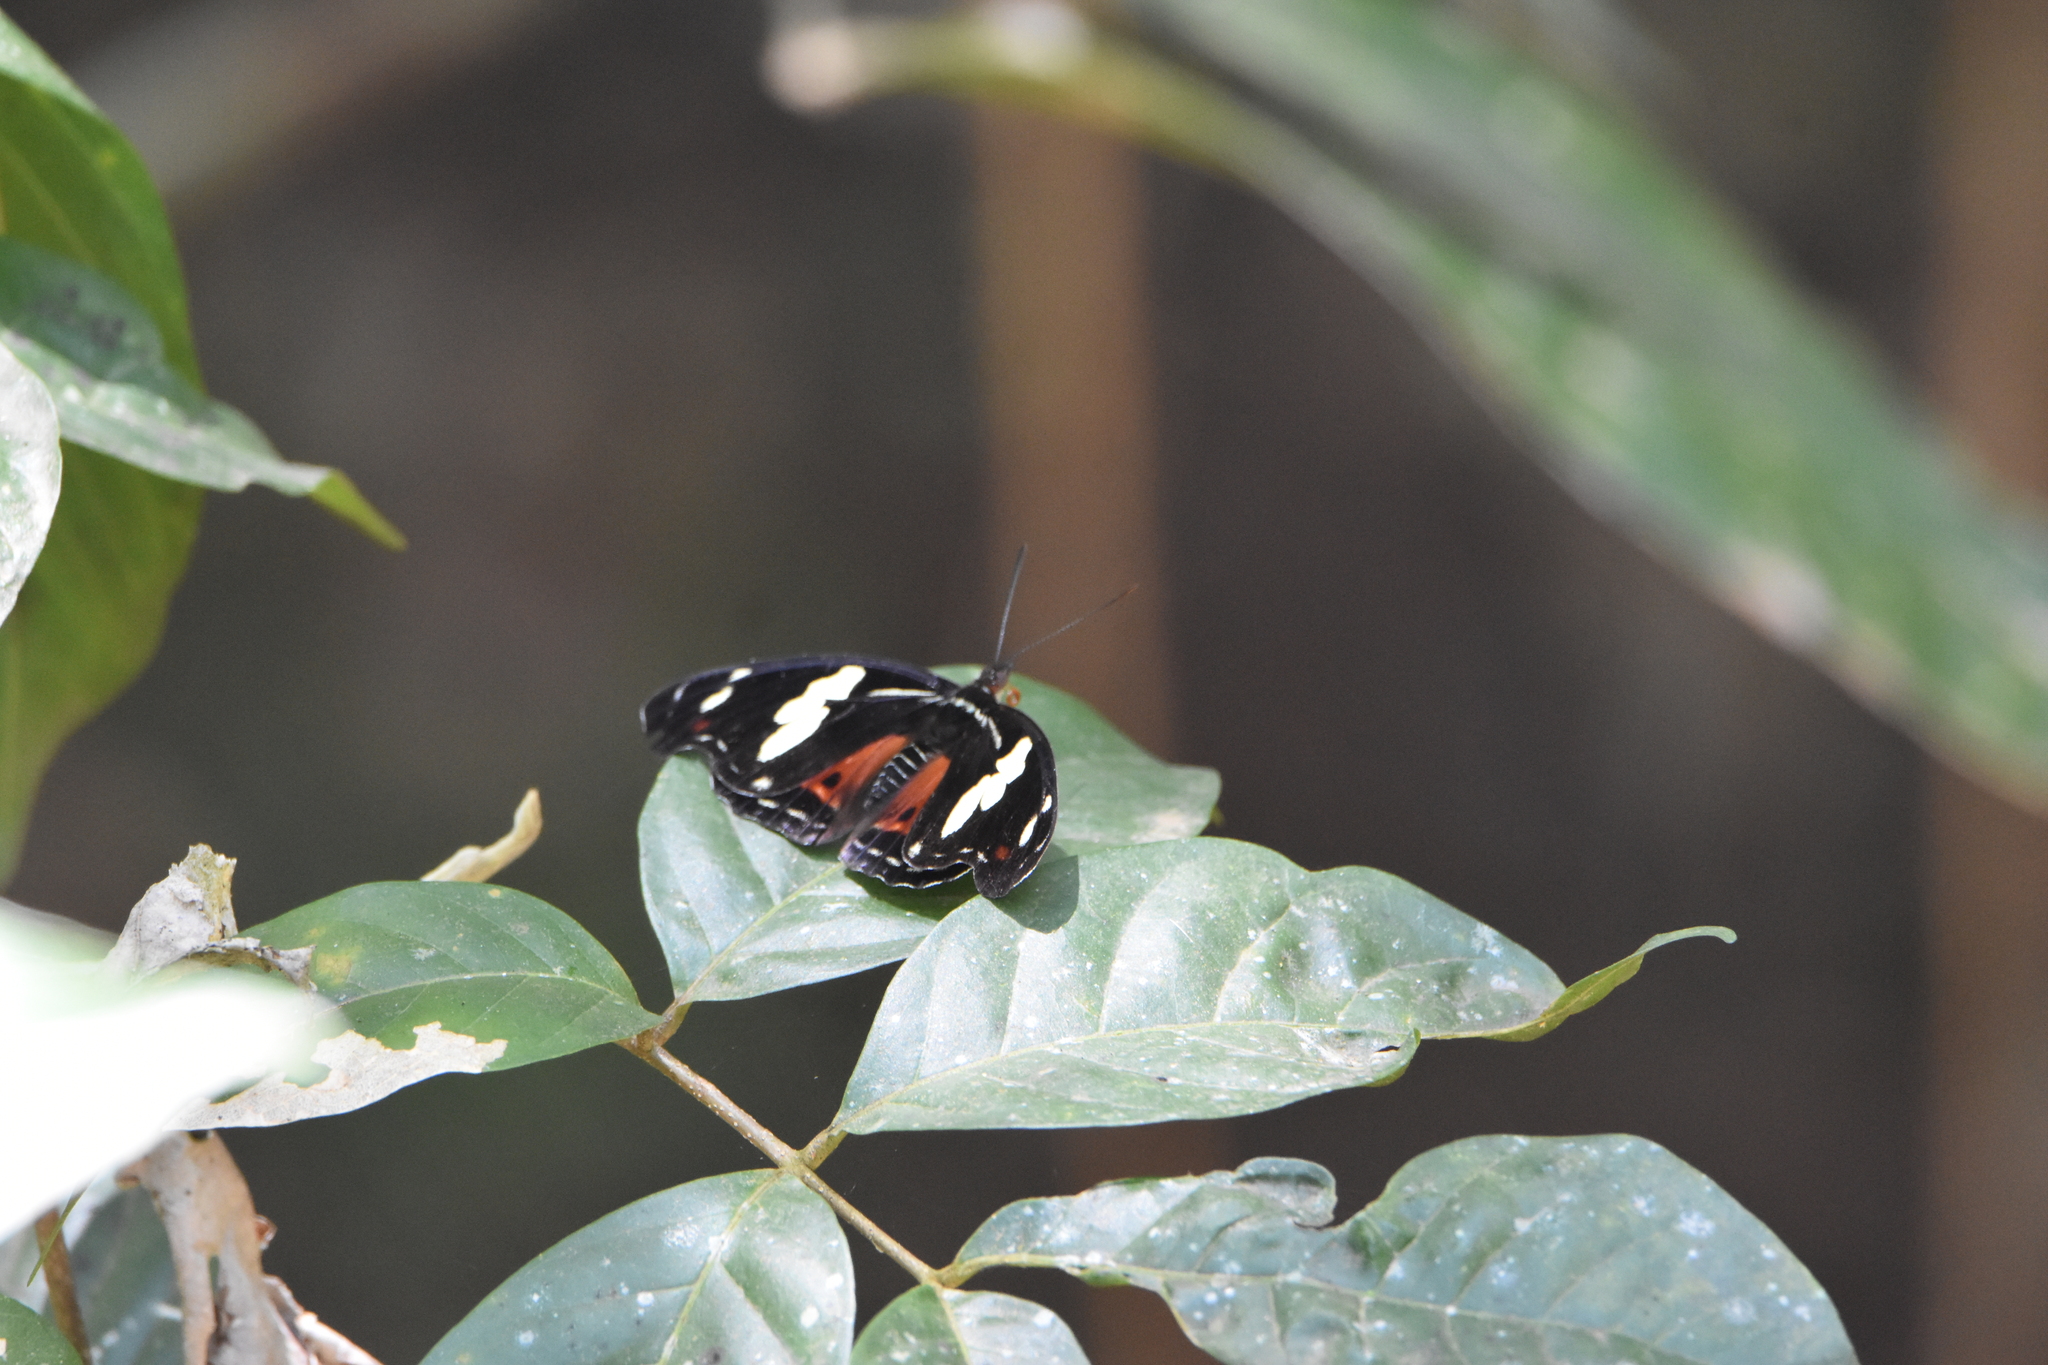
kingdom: Animalia
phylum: Arthropoda
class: Insecta
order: Lepidoptera
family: Nymphalidae
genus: Catonephele
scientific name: Catonephele numilia
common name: Blue-frosted banner
